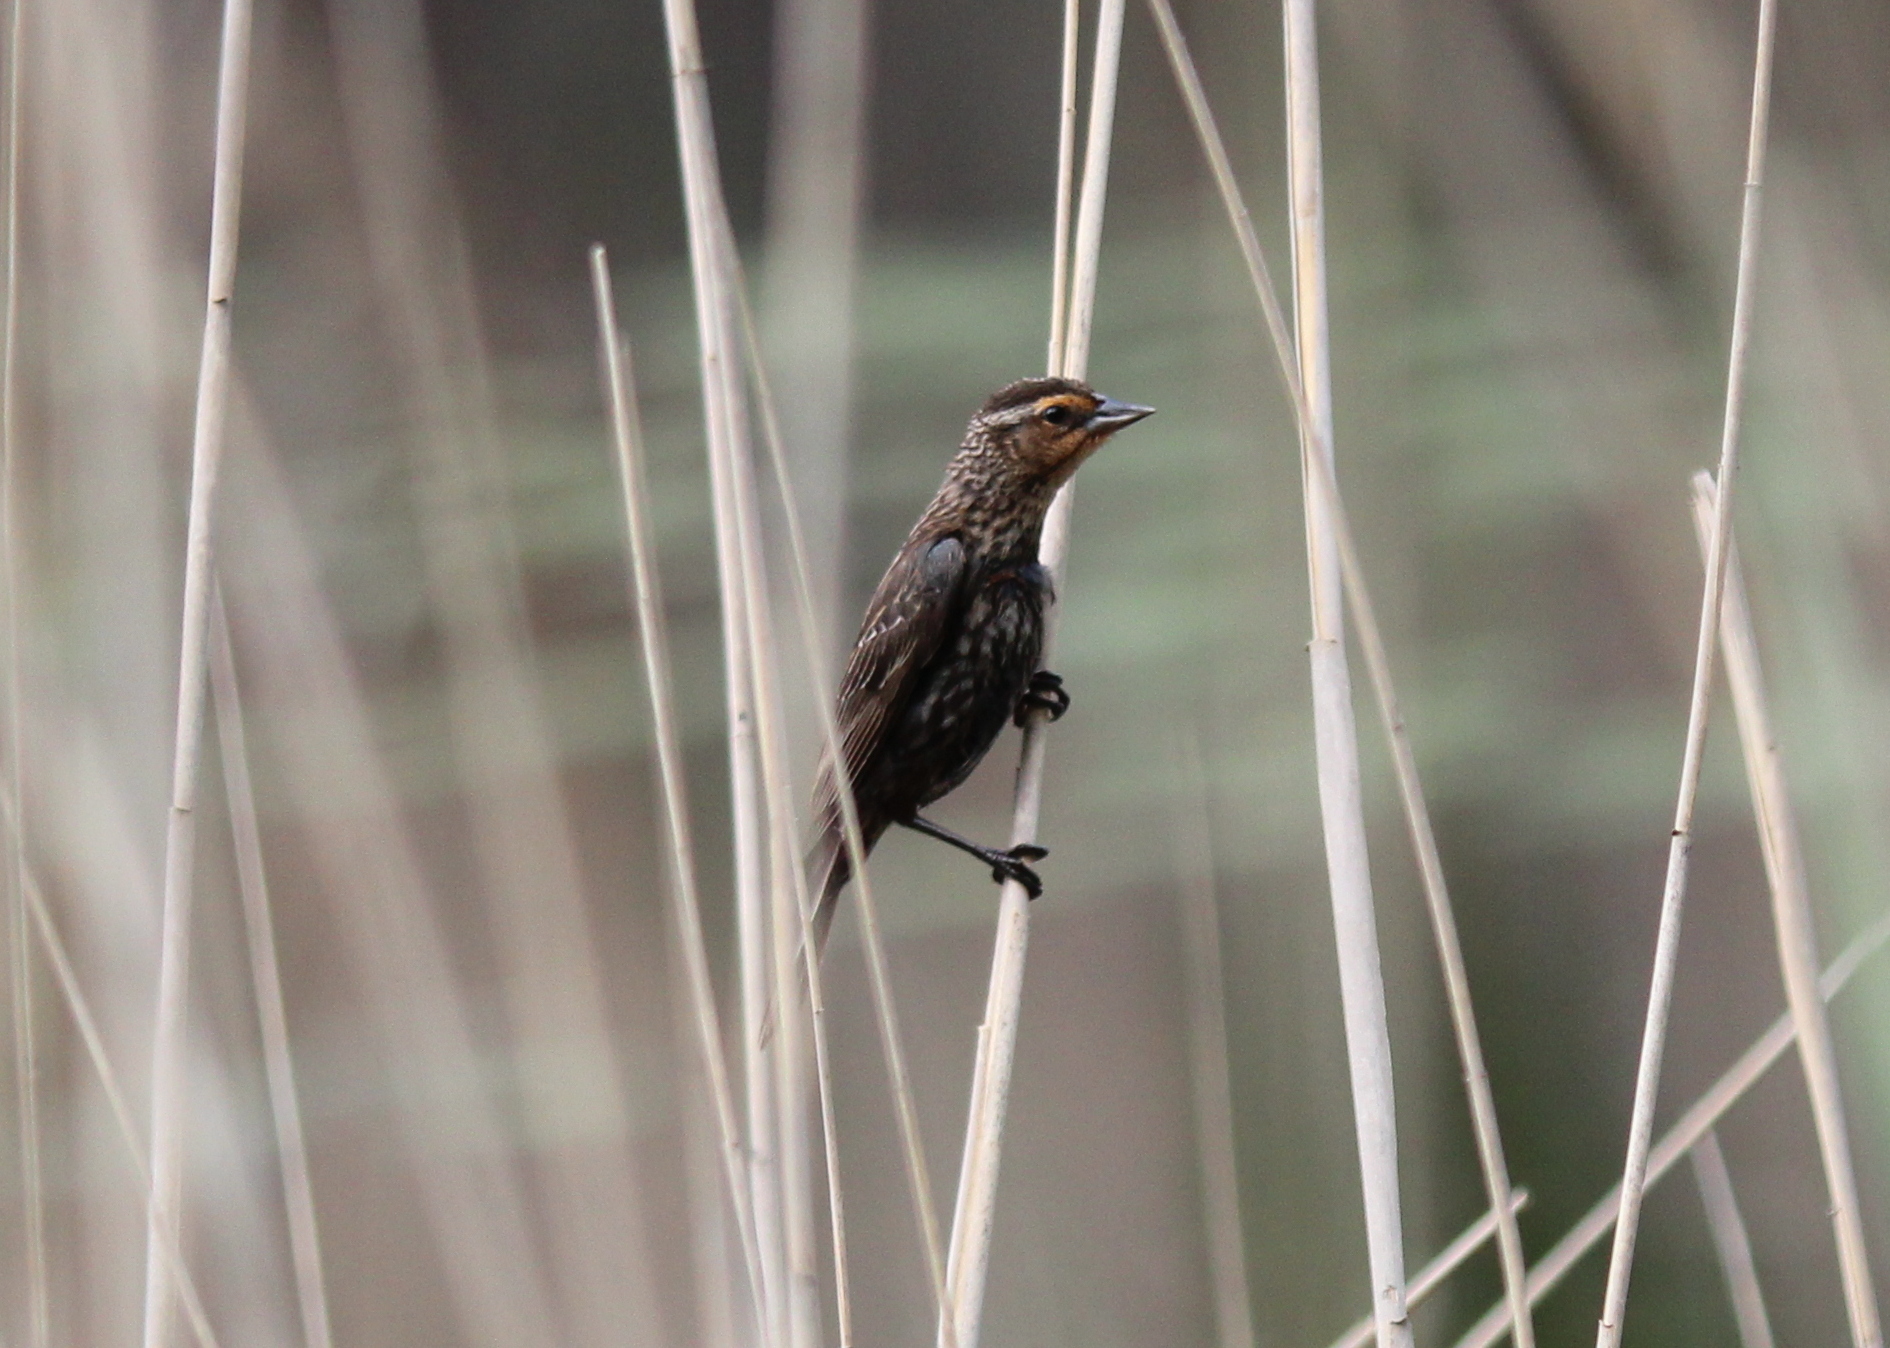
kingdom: Animalia
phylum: Chordata
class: Aves
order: Passeriformes
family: Icteridae
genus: Agelaius
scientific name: Agelaius phoeniceus
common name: Red-winged blackbird
